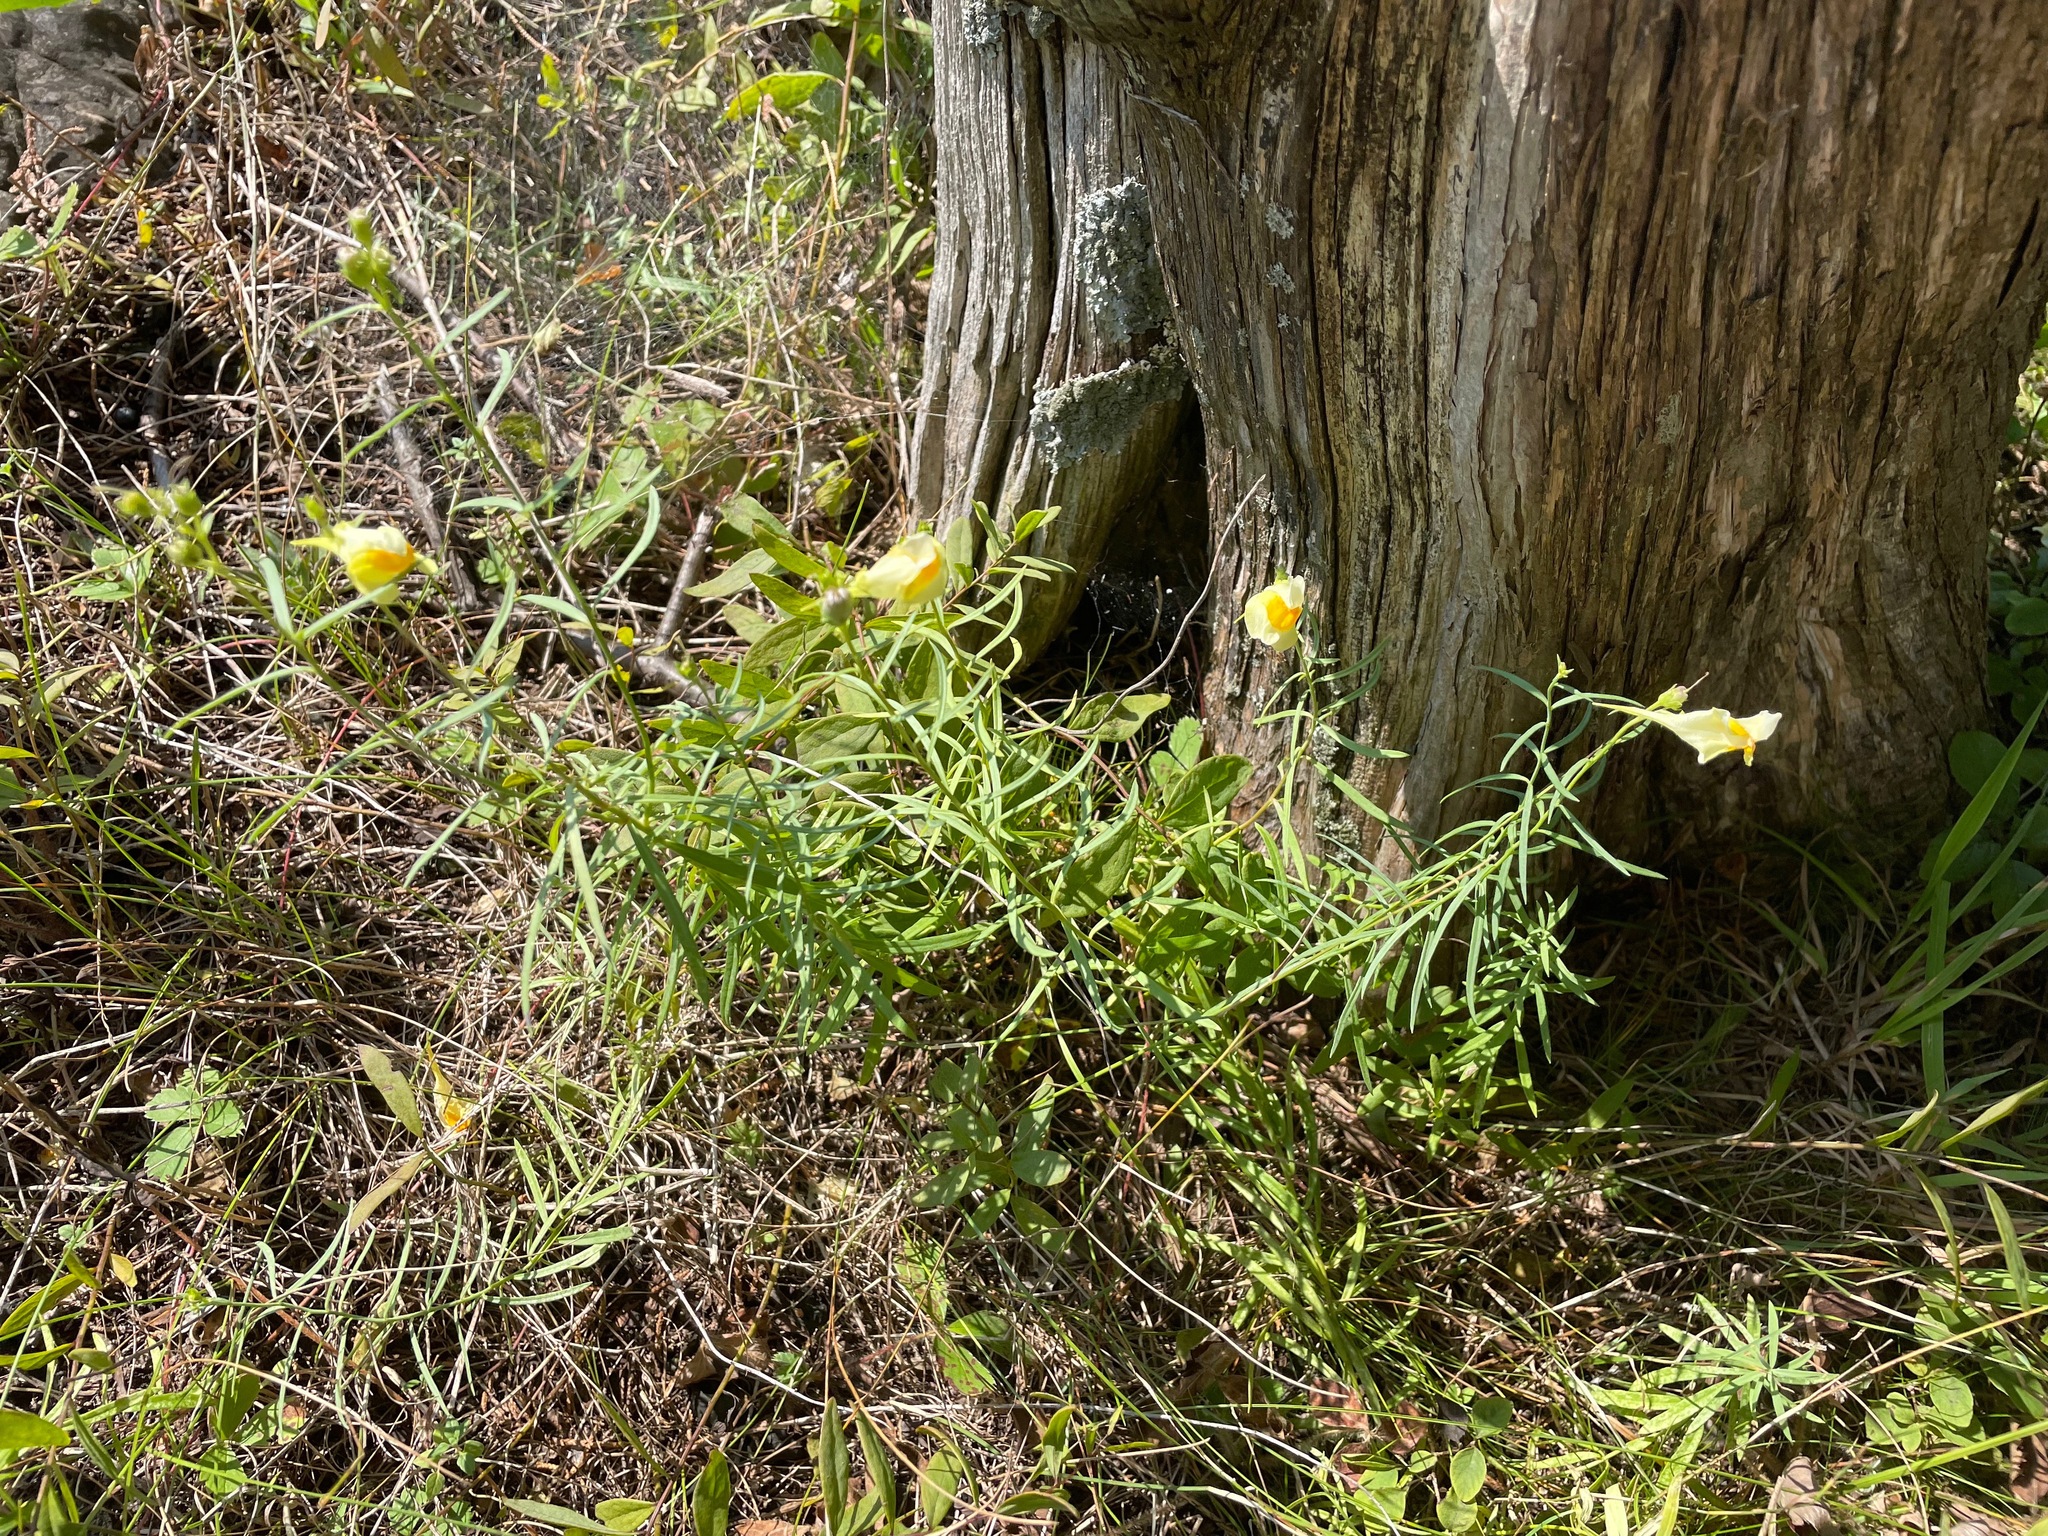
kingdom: Plantae
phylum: Tracheophyta
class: Magnoliopsida
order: Lamiales
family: Plantaginaceae
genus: Linaria
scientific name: Linaria vulgaris
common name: Butter and eggs
